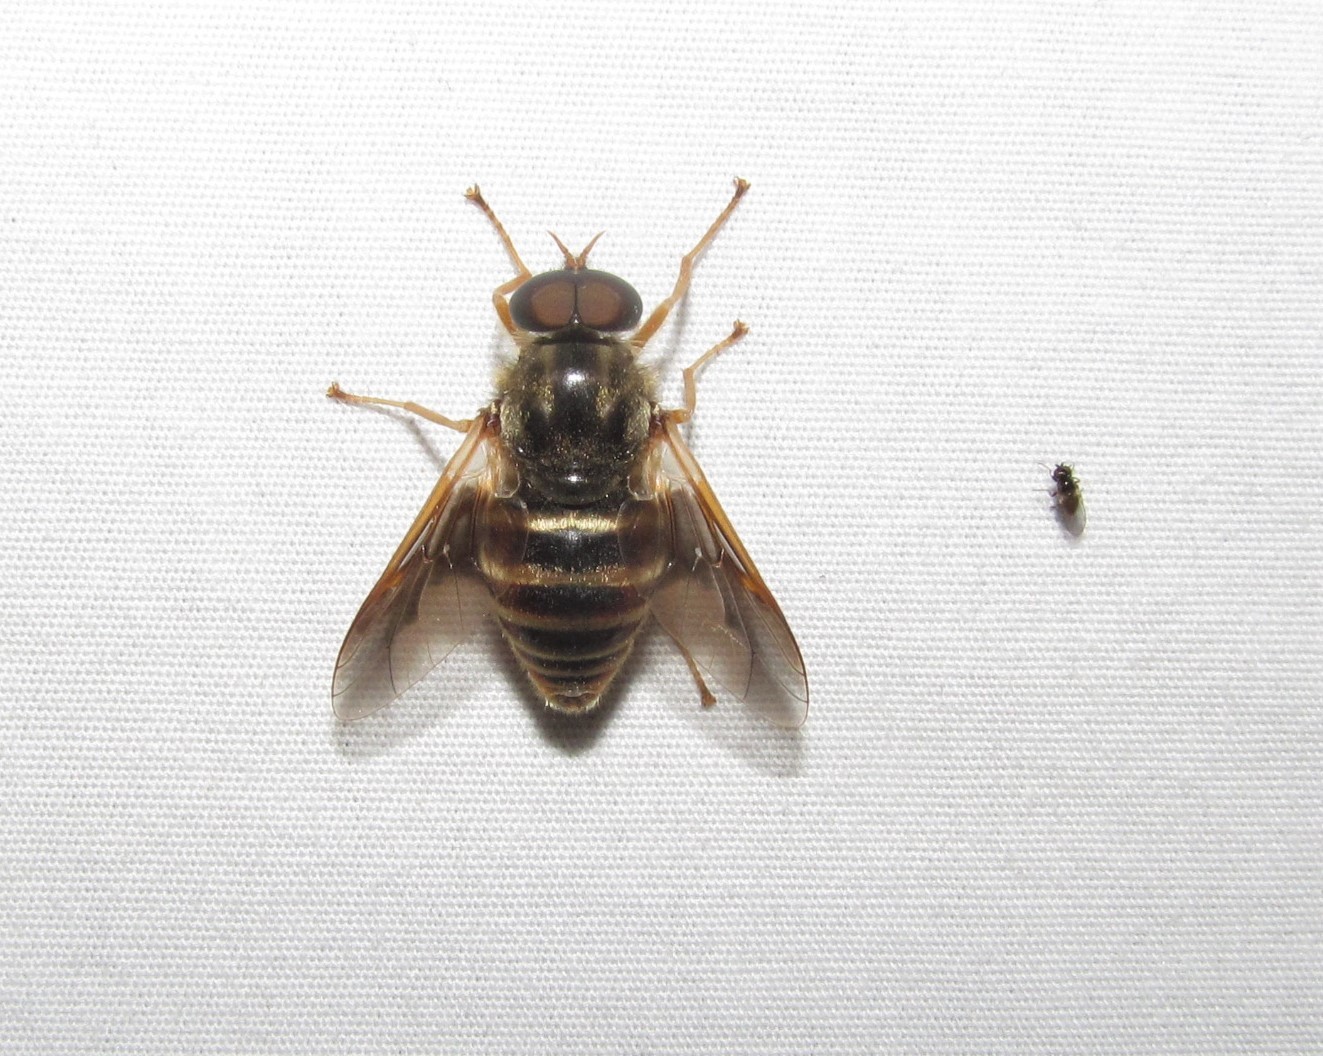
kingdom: Animalia
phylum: Arthropoda
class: Insecta
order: Diptera
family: Tabanidae
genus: Goniops
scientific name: Goniops chrysocoma
